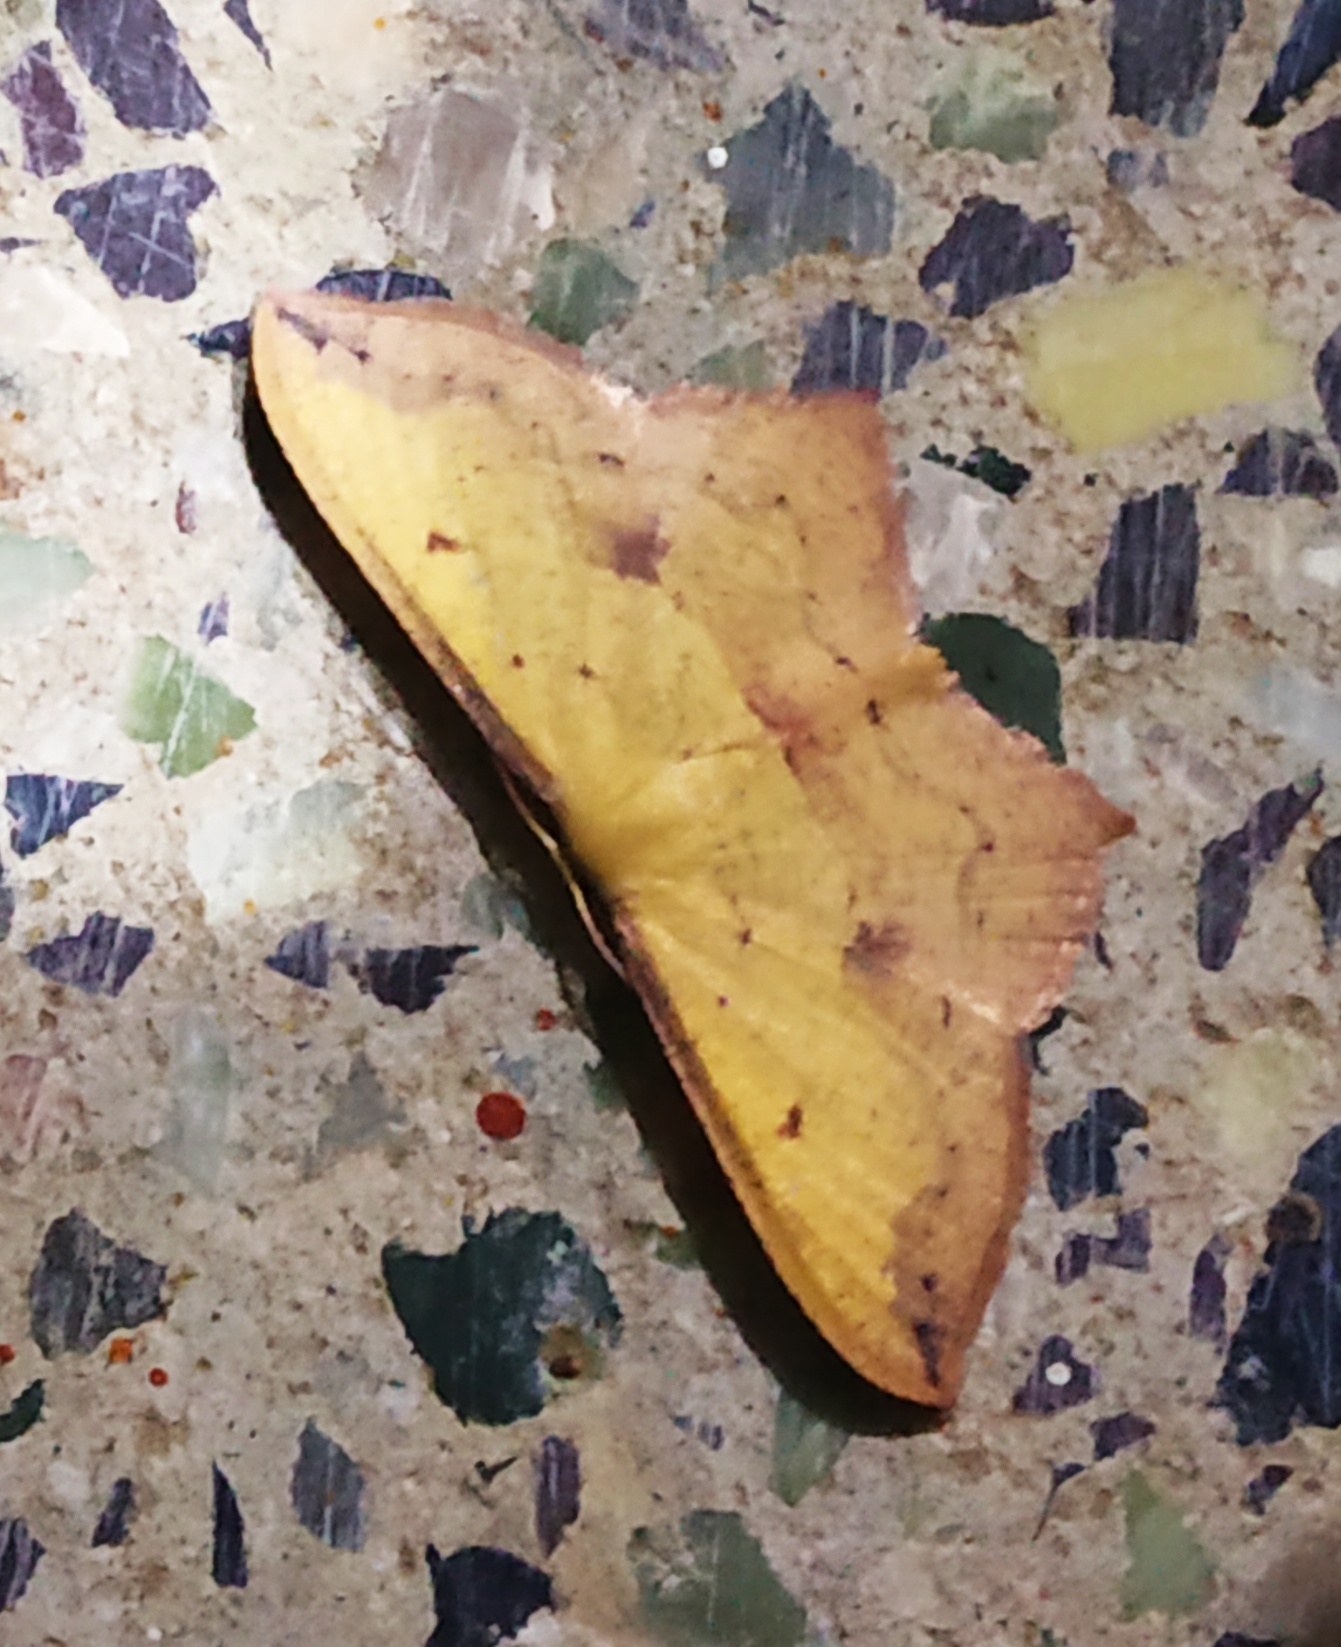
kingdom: Animalia
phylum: Arthropoda
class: Insecta
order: Lepidoptera
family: Geometridae
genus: Timandra
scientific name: Timandra ruptilinea
